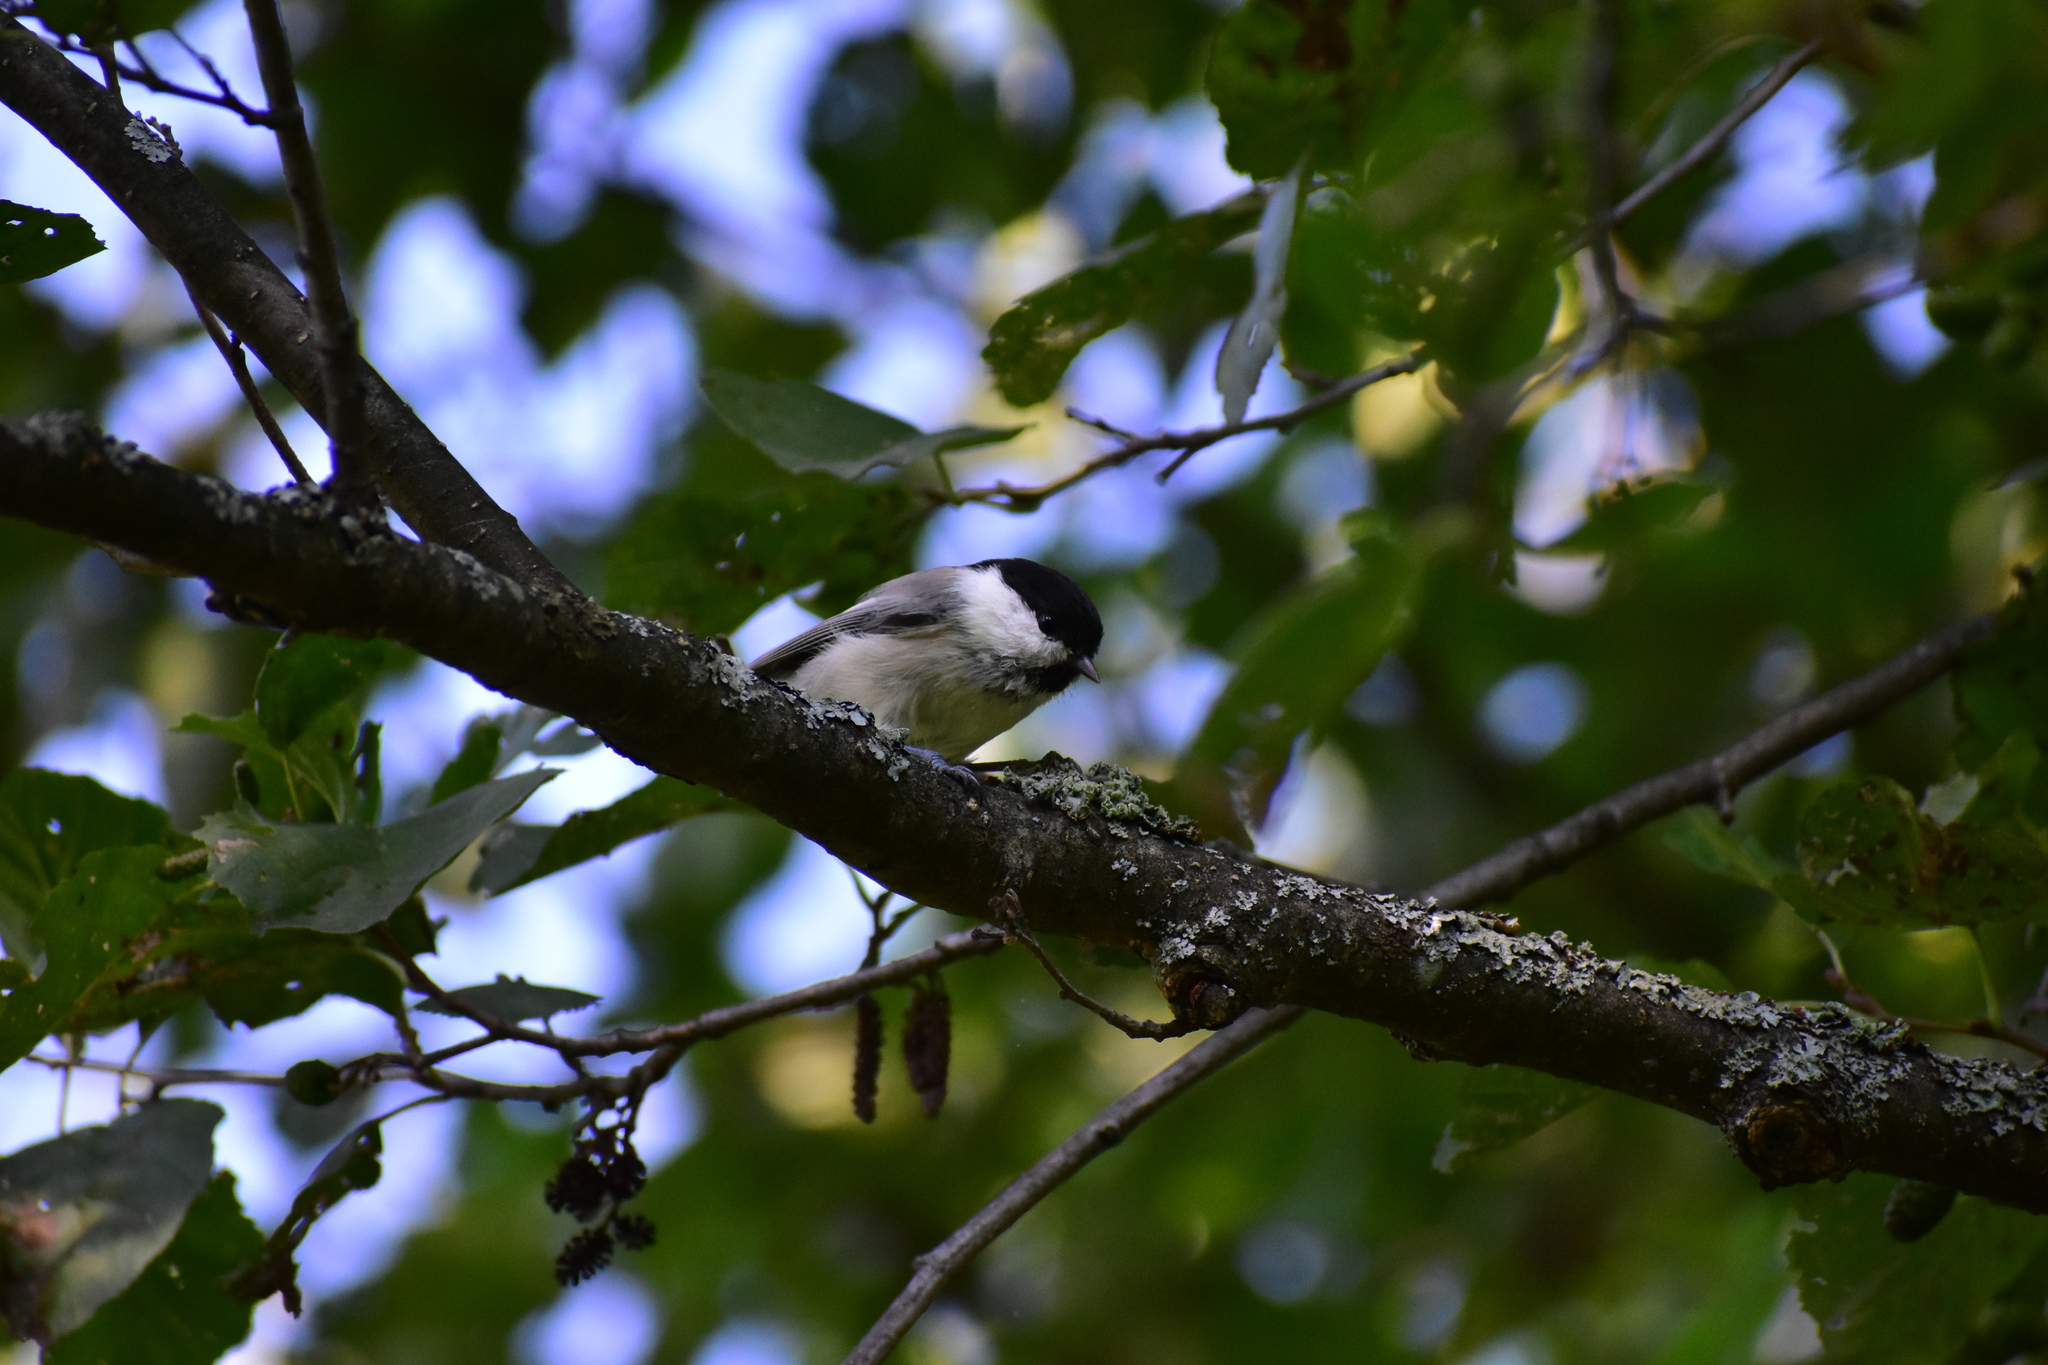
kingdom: Animalia
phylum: Chordata
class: Aves
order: Passeriformes
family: Paridae
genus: Poecile
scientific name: Poecile montanus
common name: Willow tit
